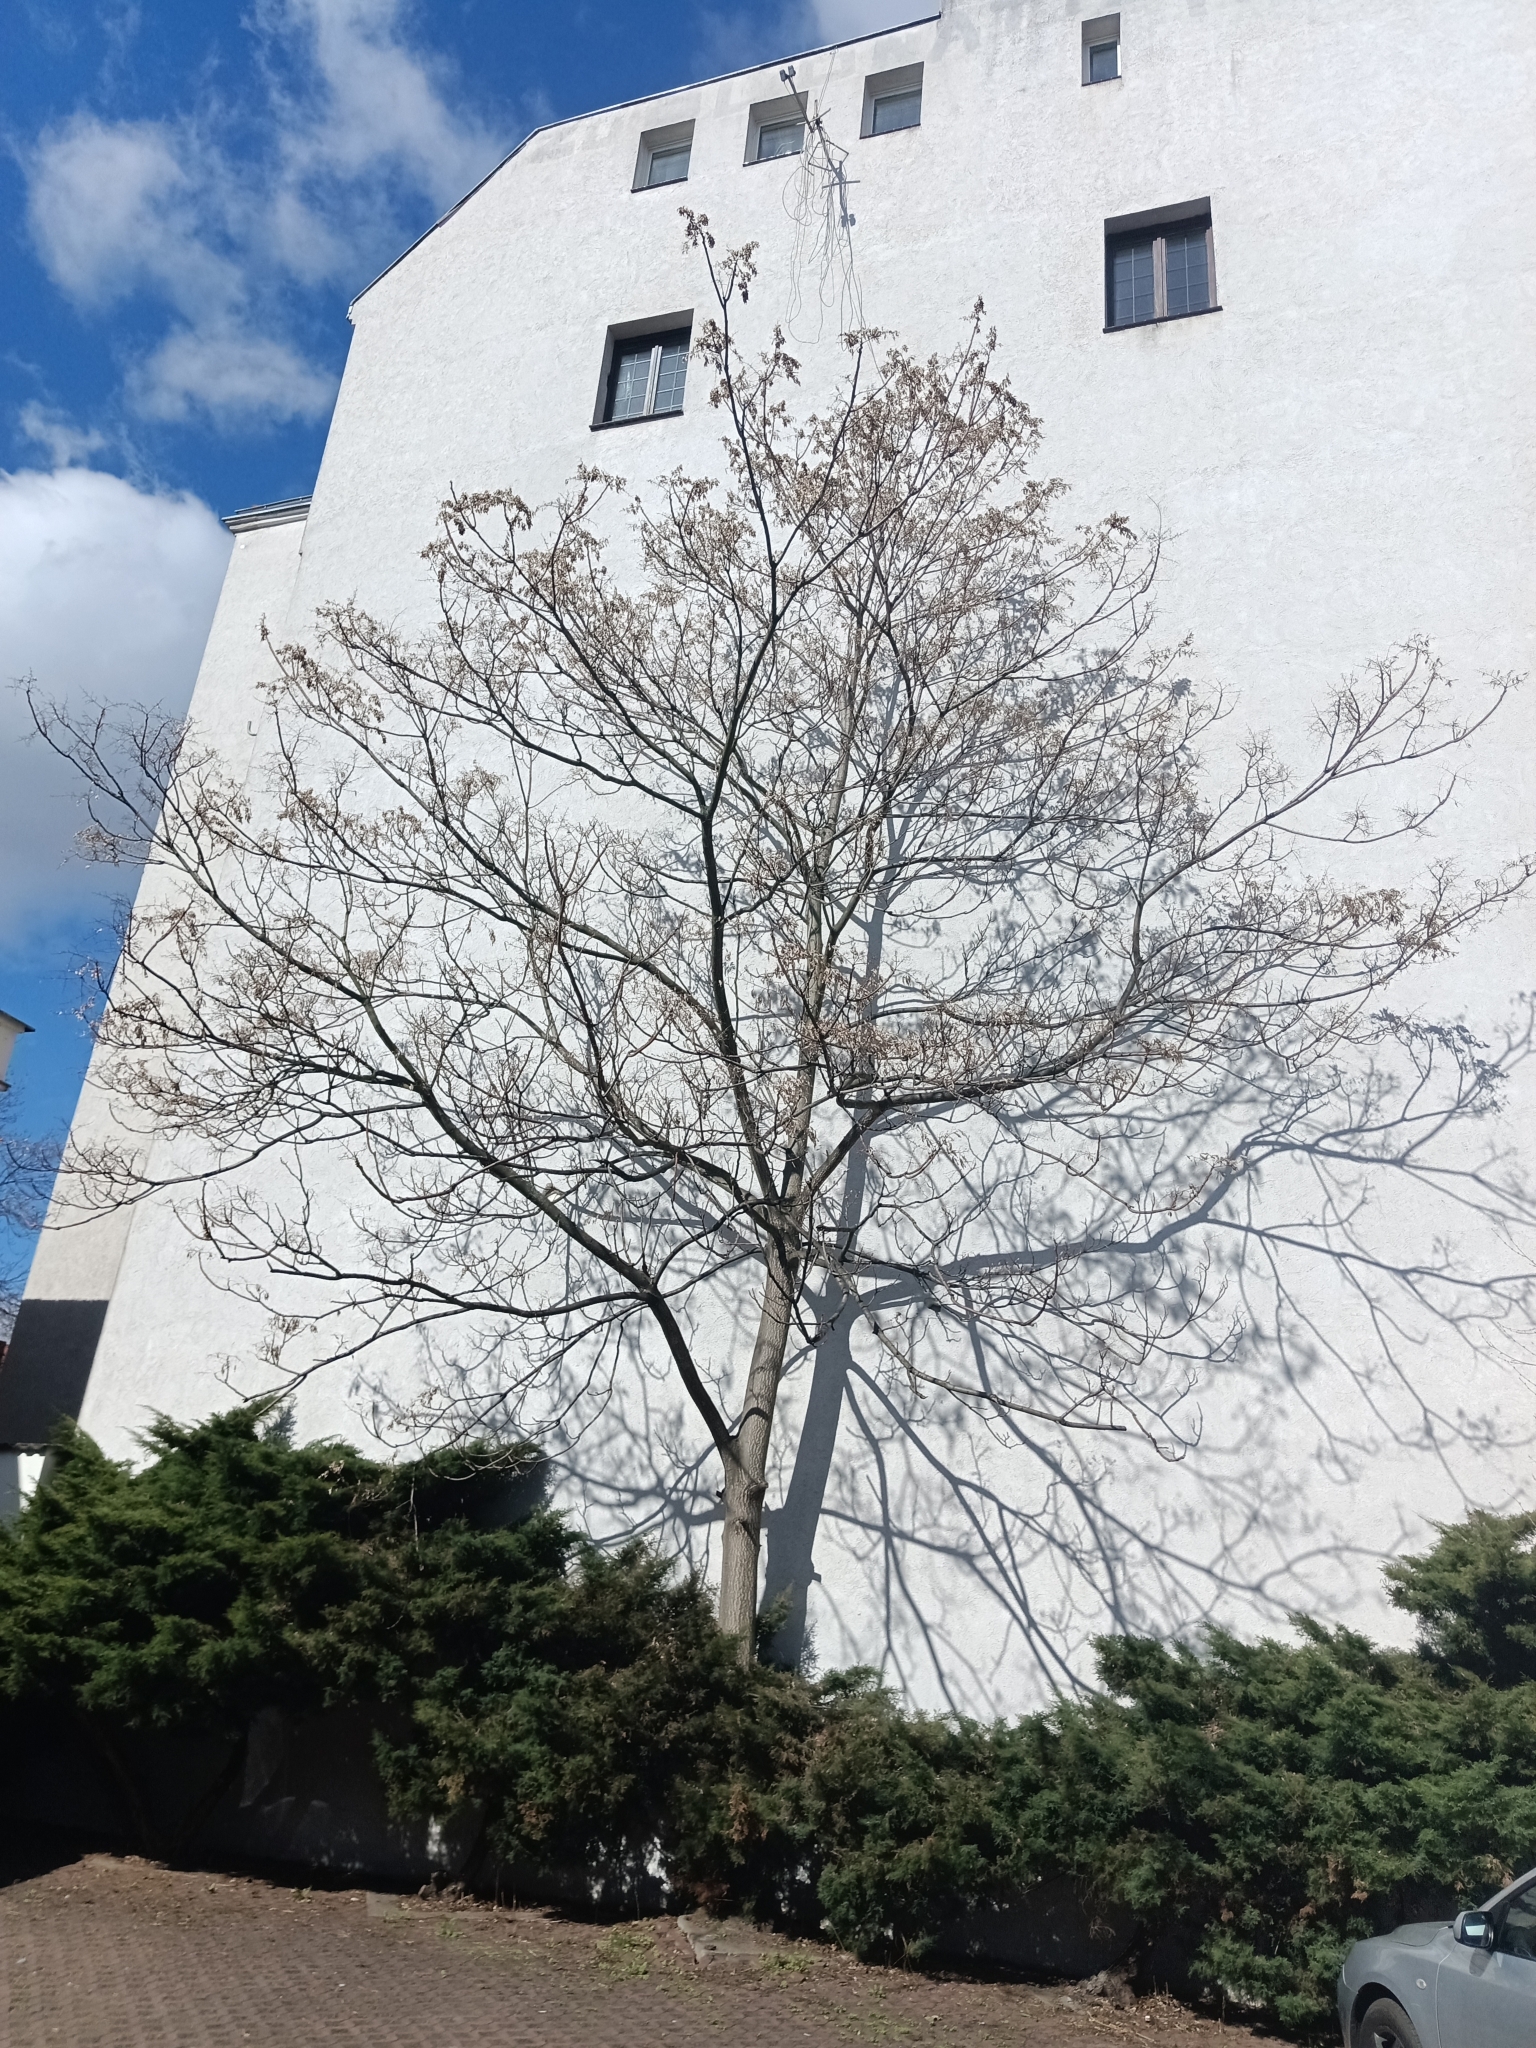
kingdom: Plantae
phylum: Tracheophyta
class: Magnoliopsida
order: Sapindales
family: Simaroubaceae
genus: Ailanthus
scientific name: Ailanthus altissima
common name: Tree-of-heaven
